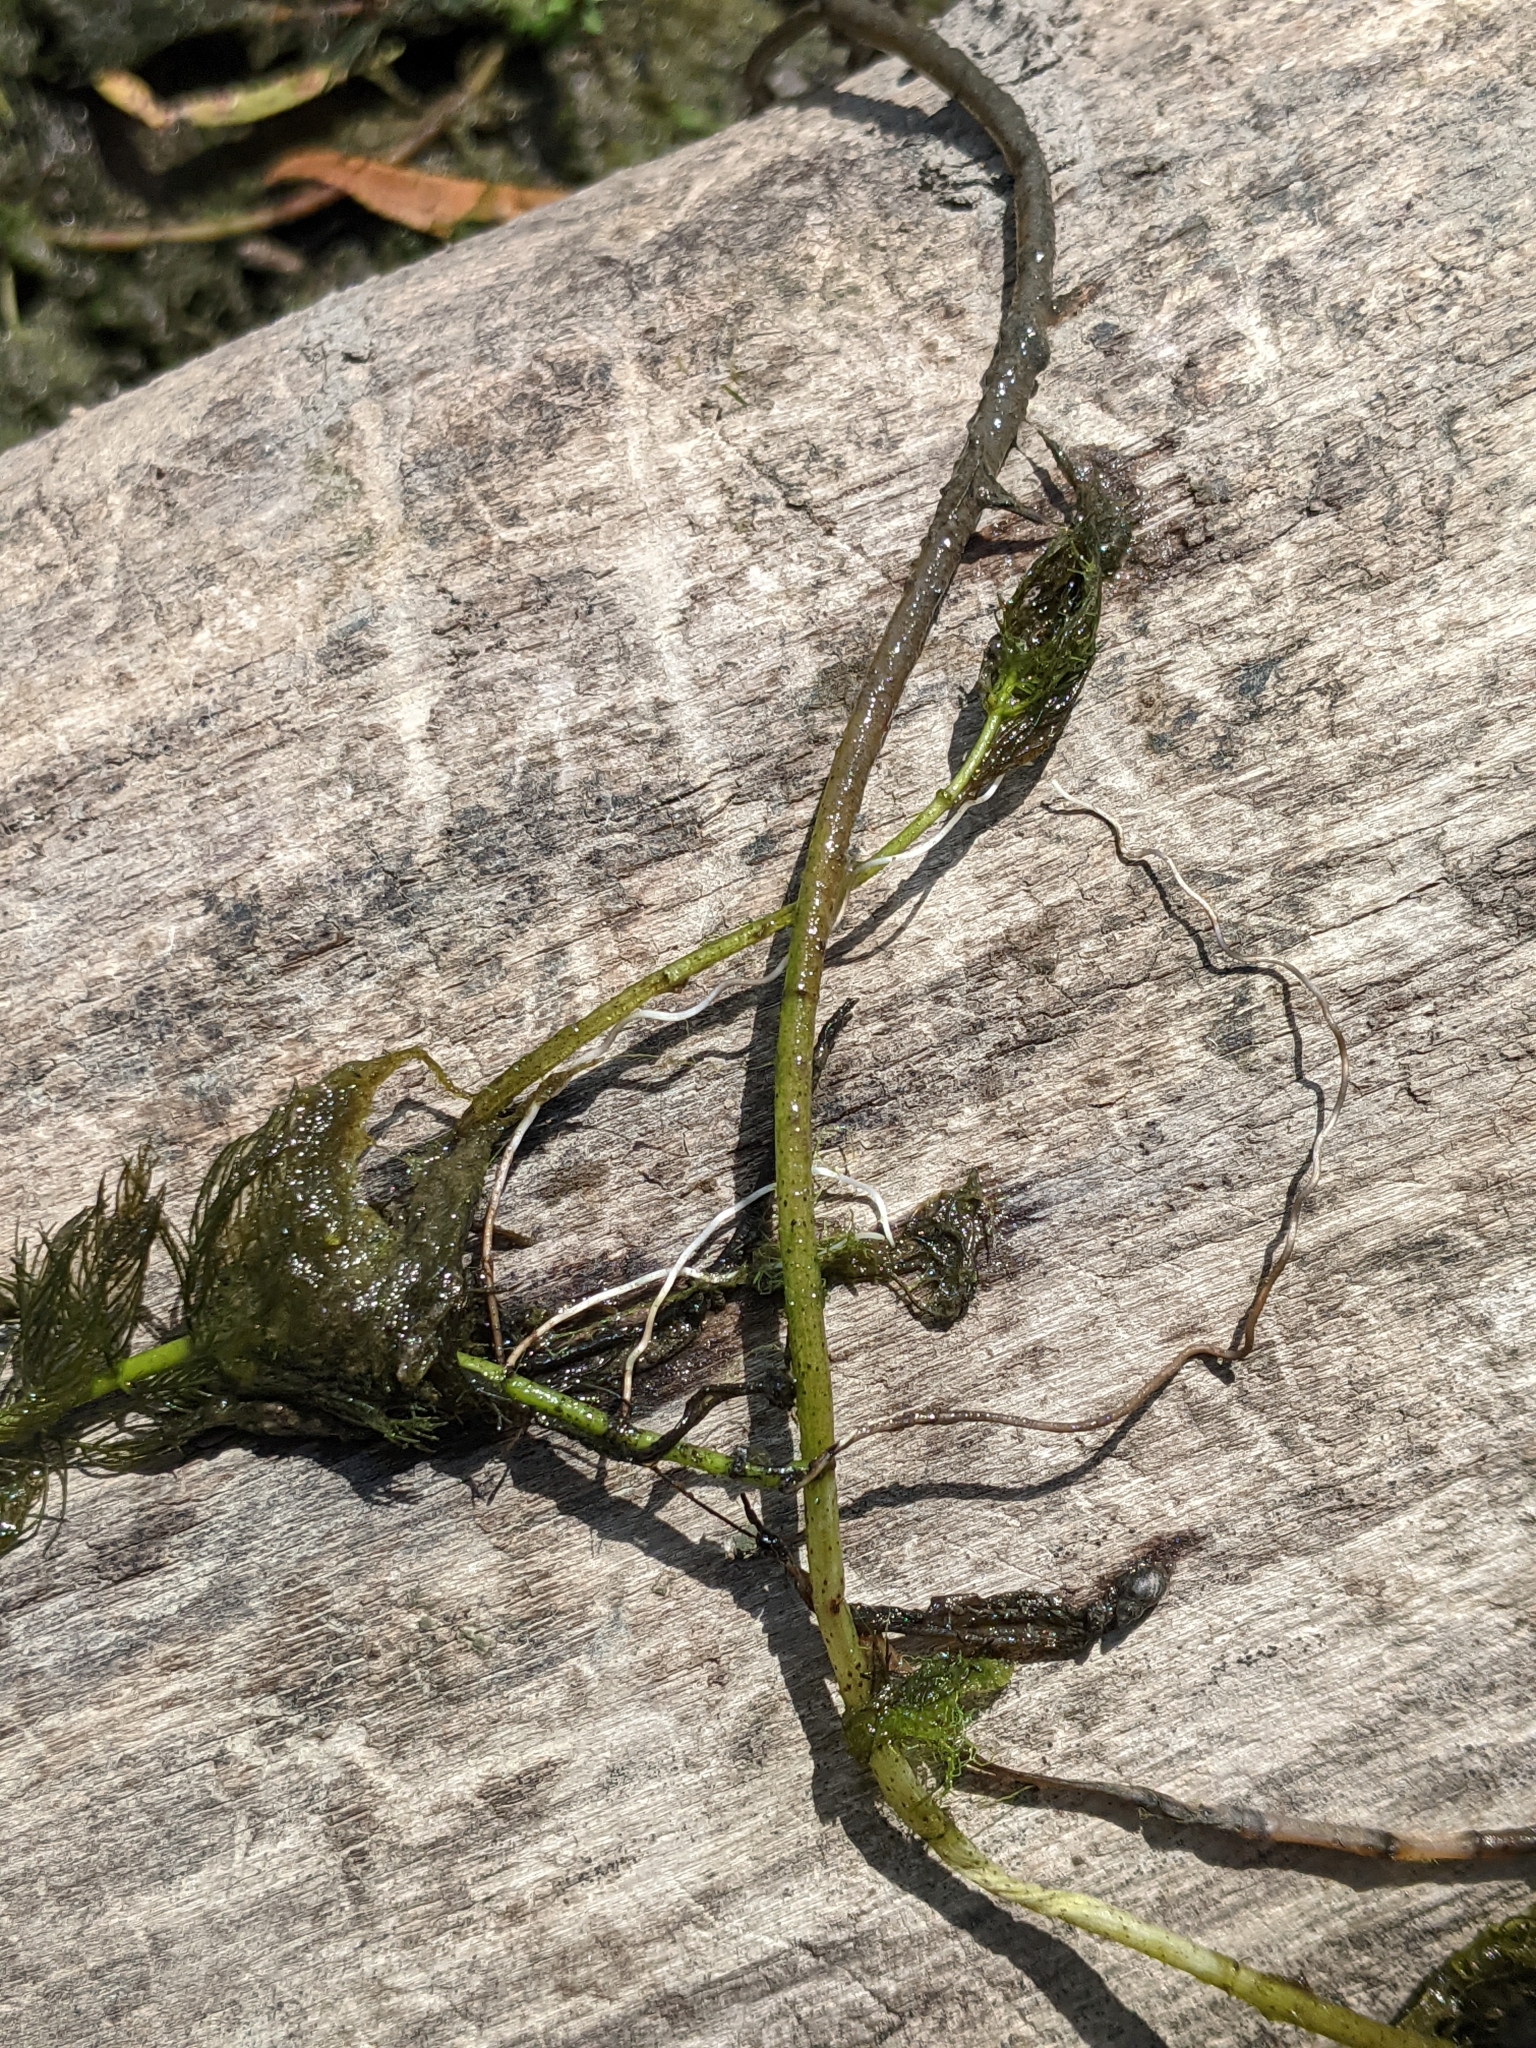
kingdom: Plantae
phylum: Tracheophyta
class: Magnoliopsida
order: Saxifragales
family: Haloragaceae
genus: Myriophyllum
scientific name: Myriophyllum spicatum
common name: Spiked water-milfoil
